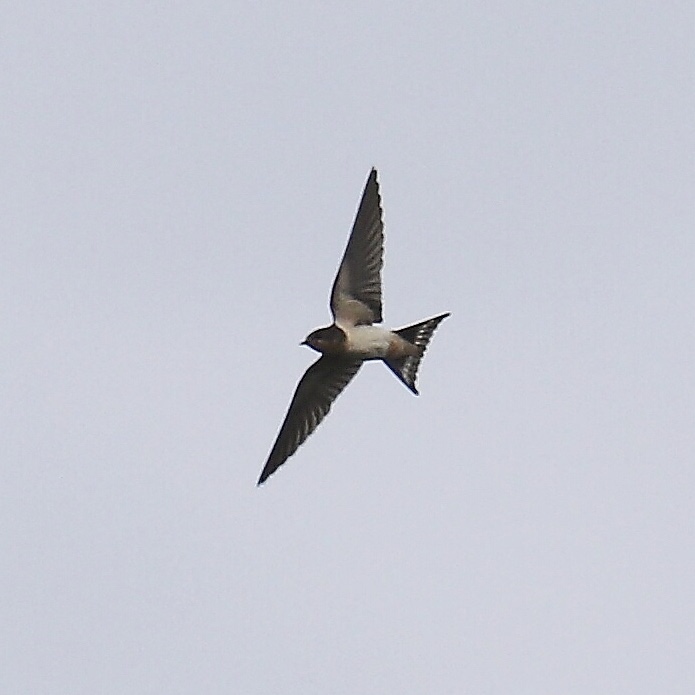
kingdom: Animalia
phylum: Chordata
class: Aves
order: Passeriformes
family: Hirundinidae
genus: Hirundo
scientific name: Hirundo rustica
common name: Barn swallow
